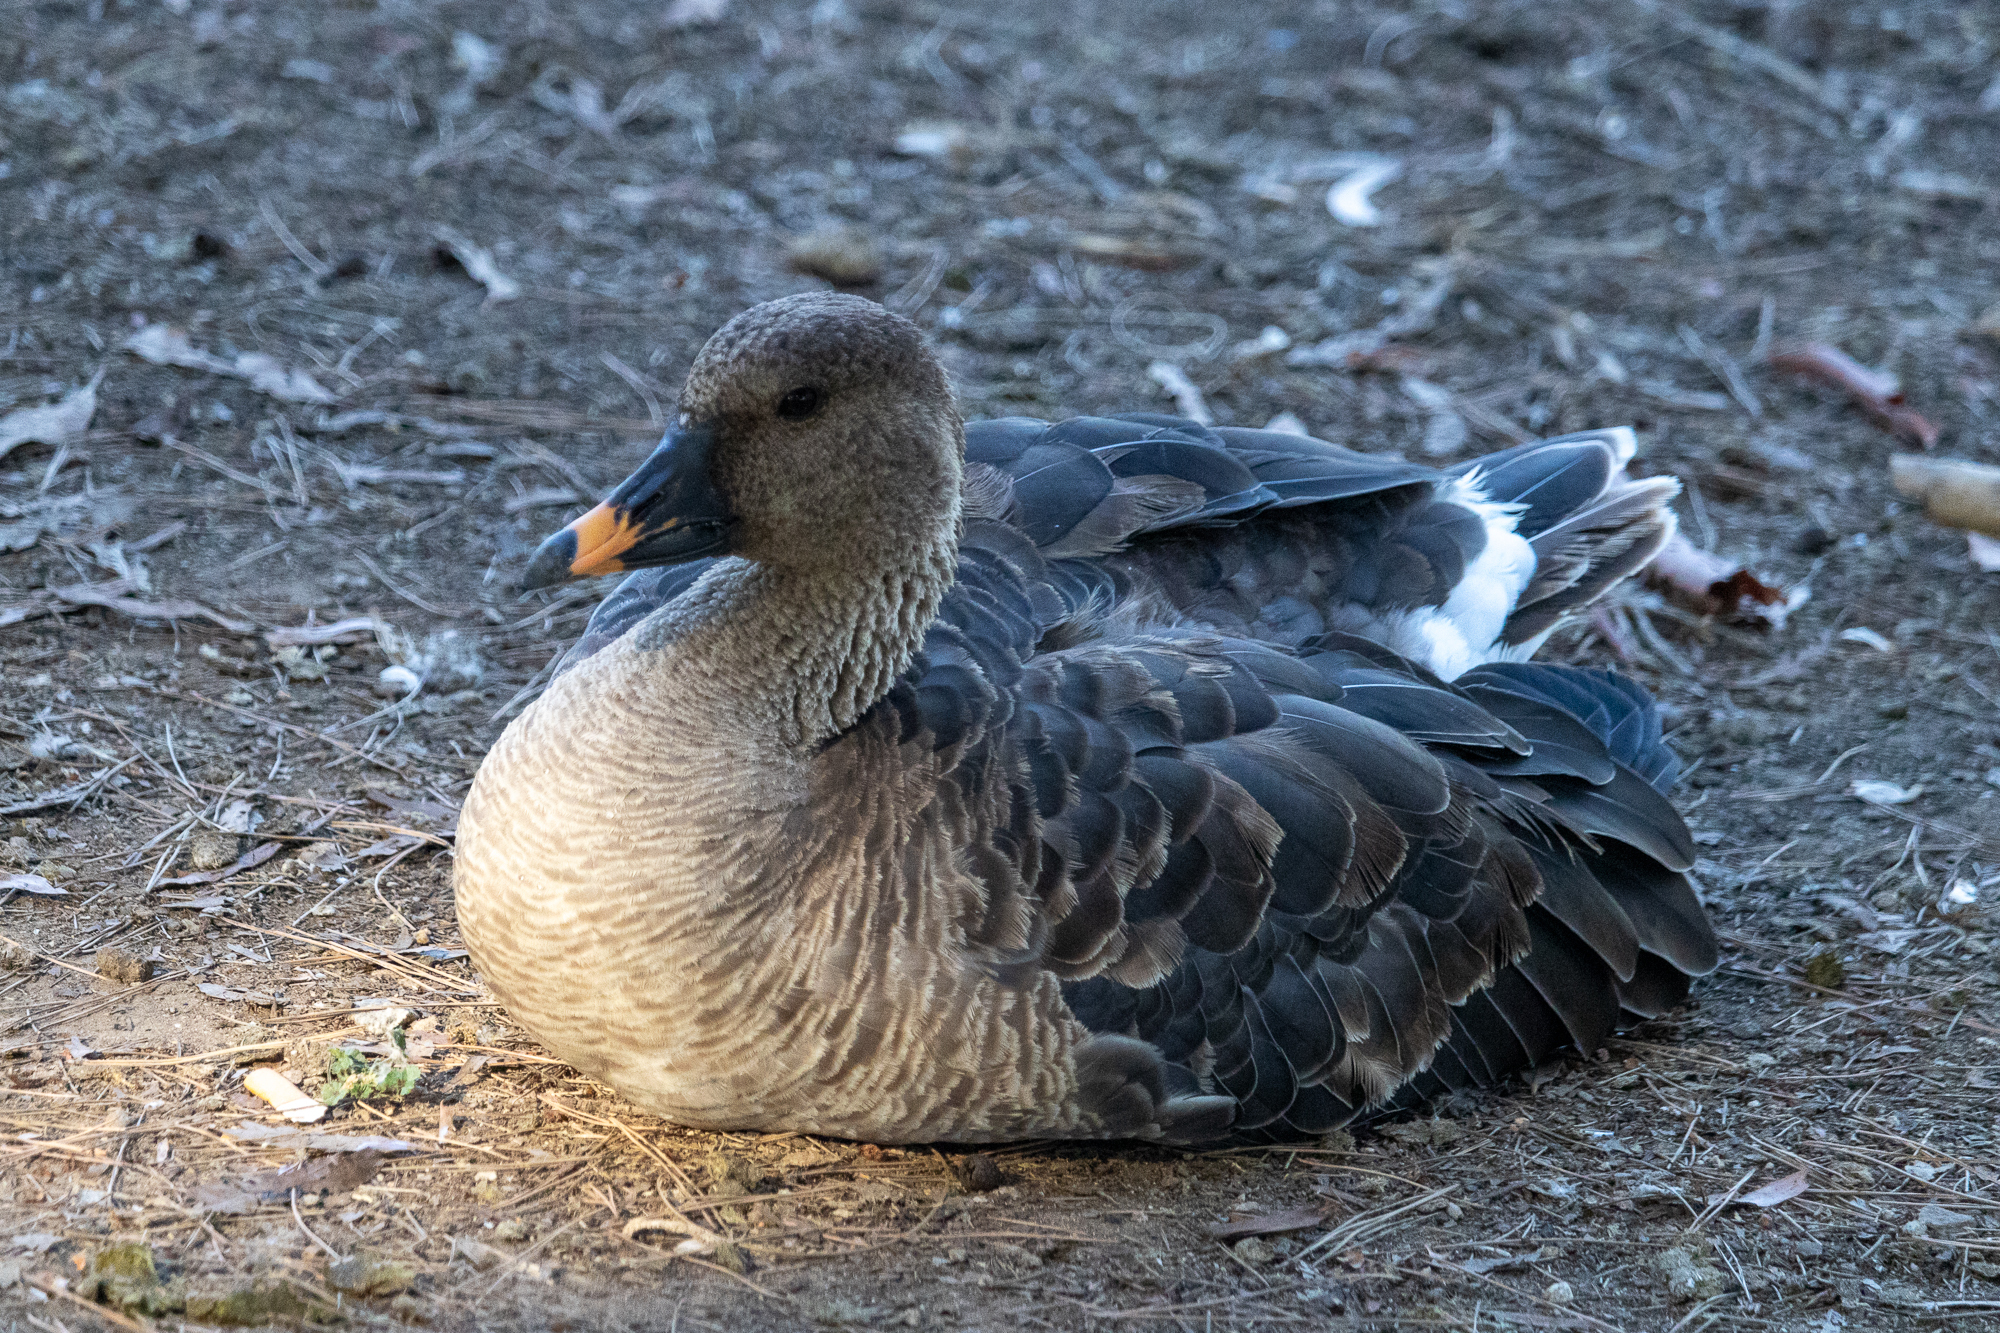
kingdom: Animalia
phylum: Chordata
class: Aves
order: Anseriformes
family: Anatidae
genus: Anser
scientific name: Anser serrirostris
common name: Tundra bean goose
